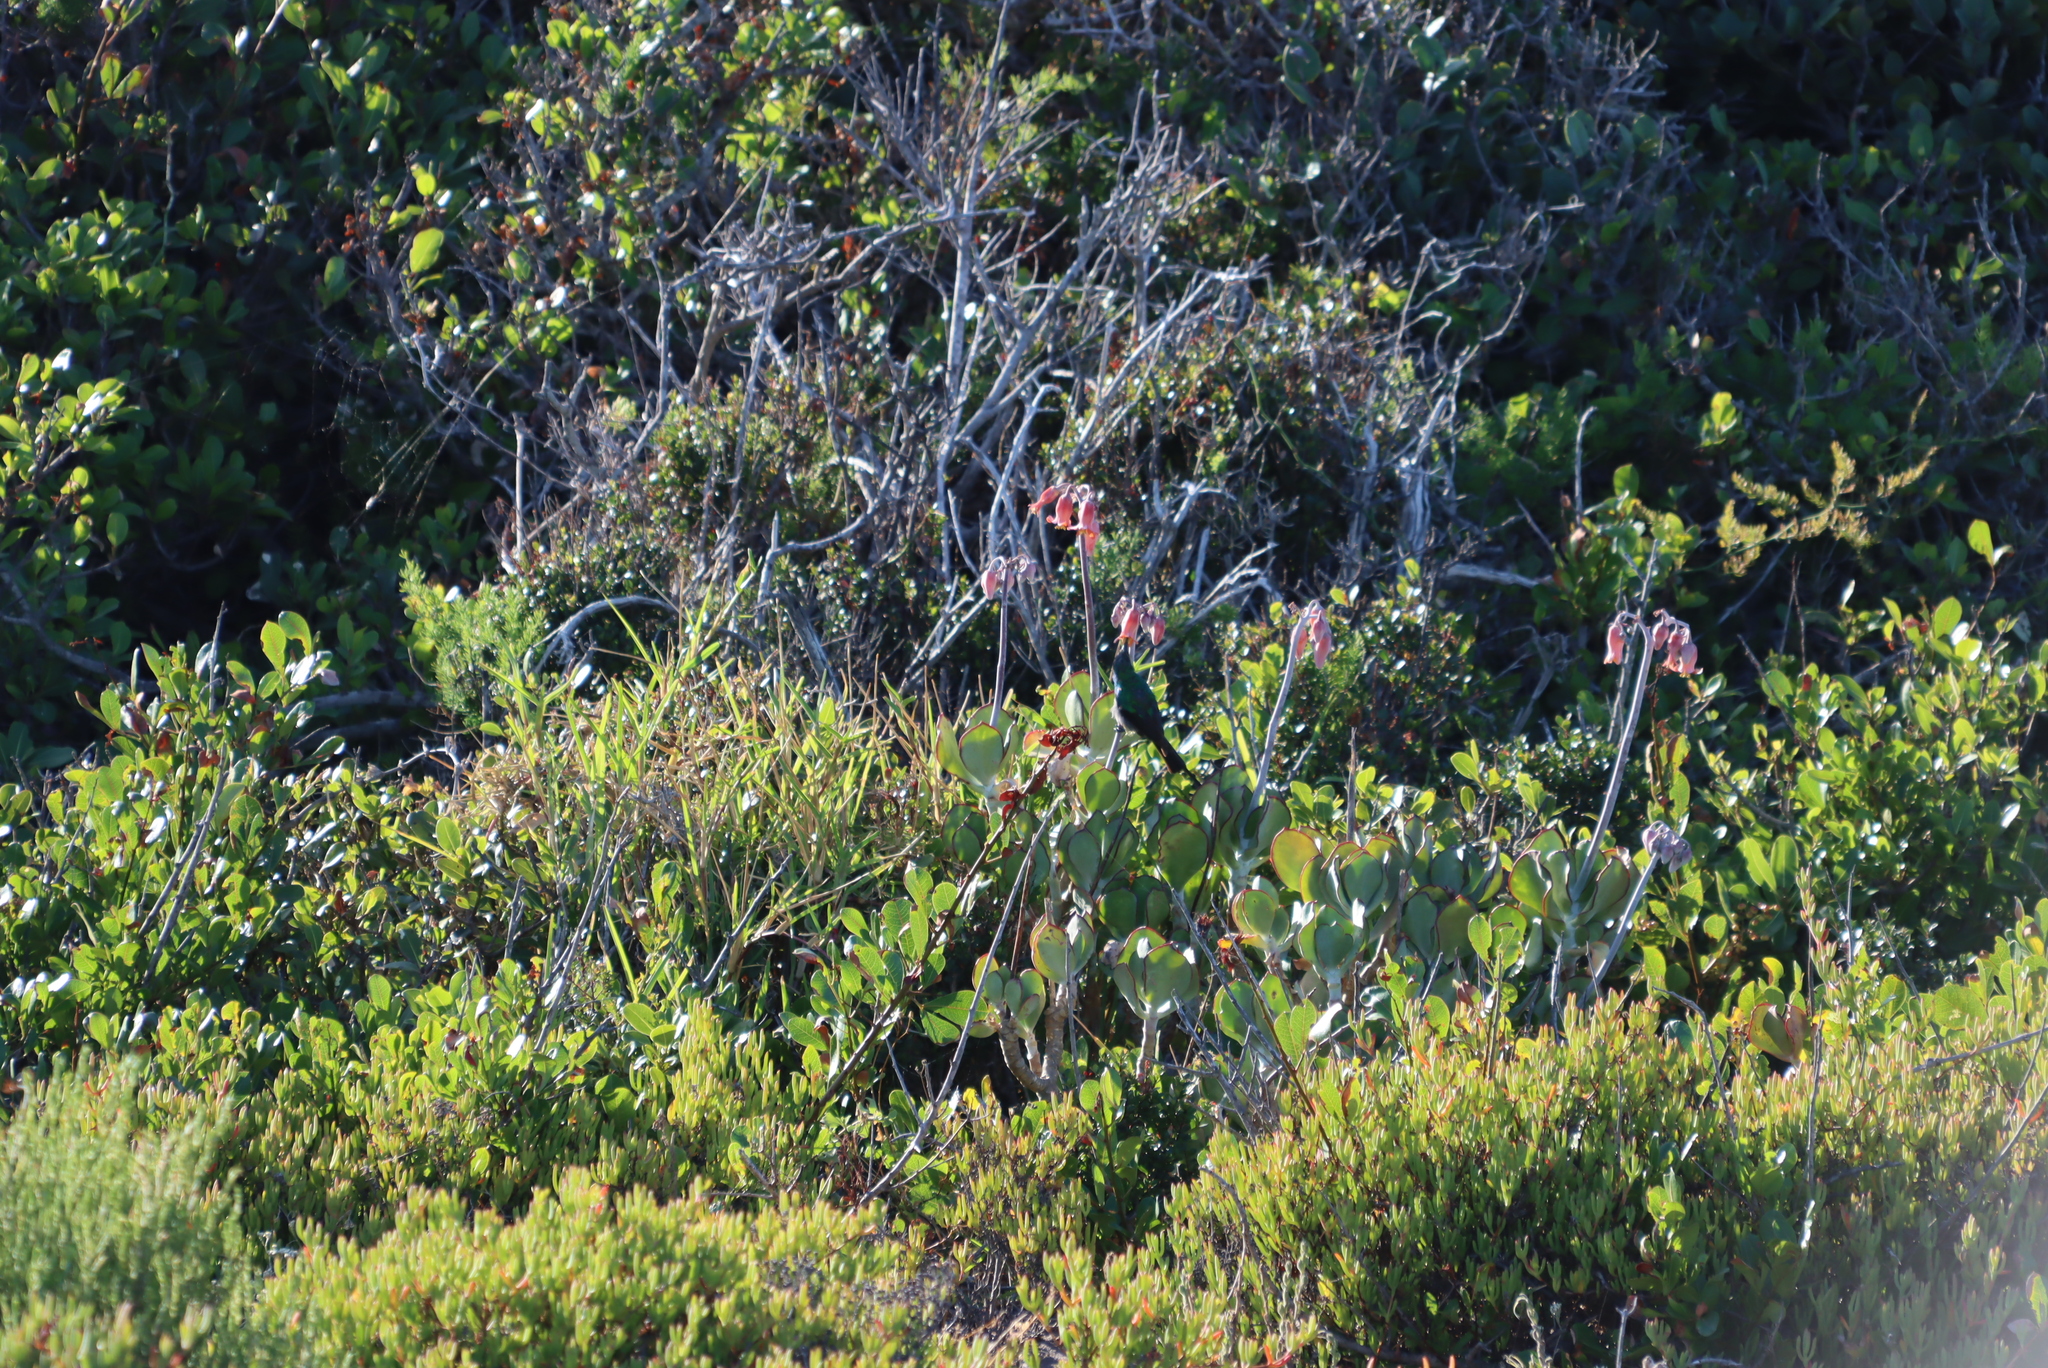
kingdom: Plantae
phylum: Tracheophyta
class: Magnoliopsida
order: Saxifragales
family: Crassulaceae
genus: Cotyledon
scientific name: Cotyledon orbiculata
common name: Pig's ear
